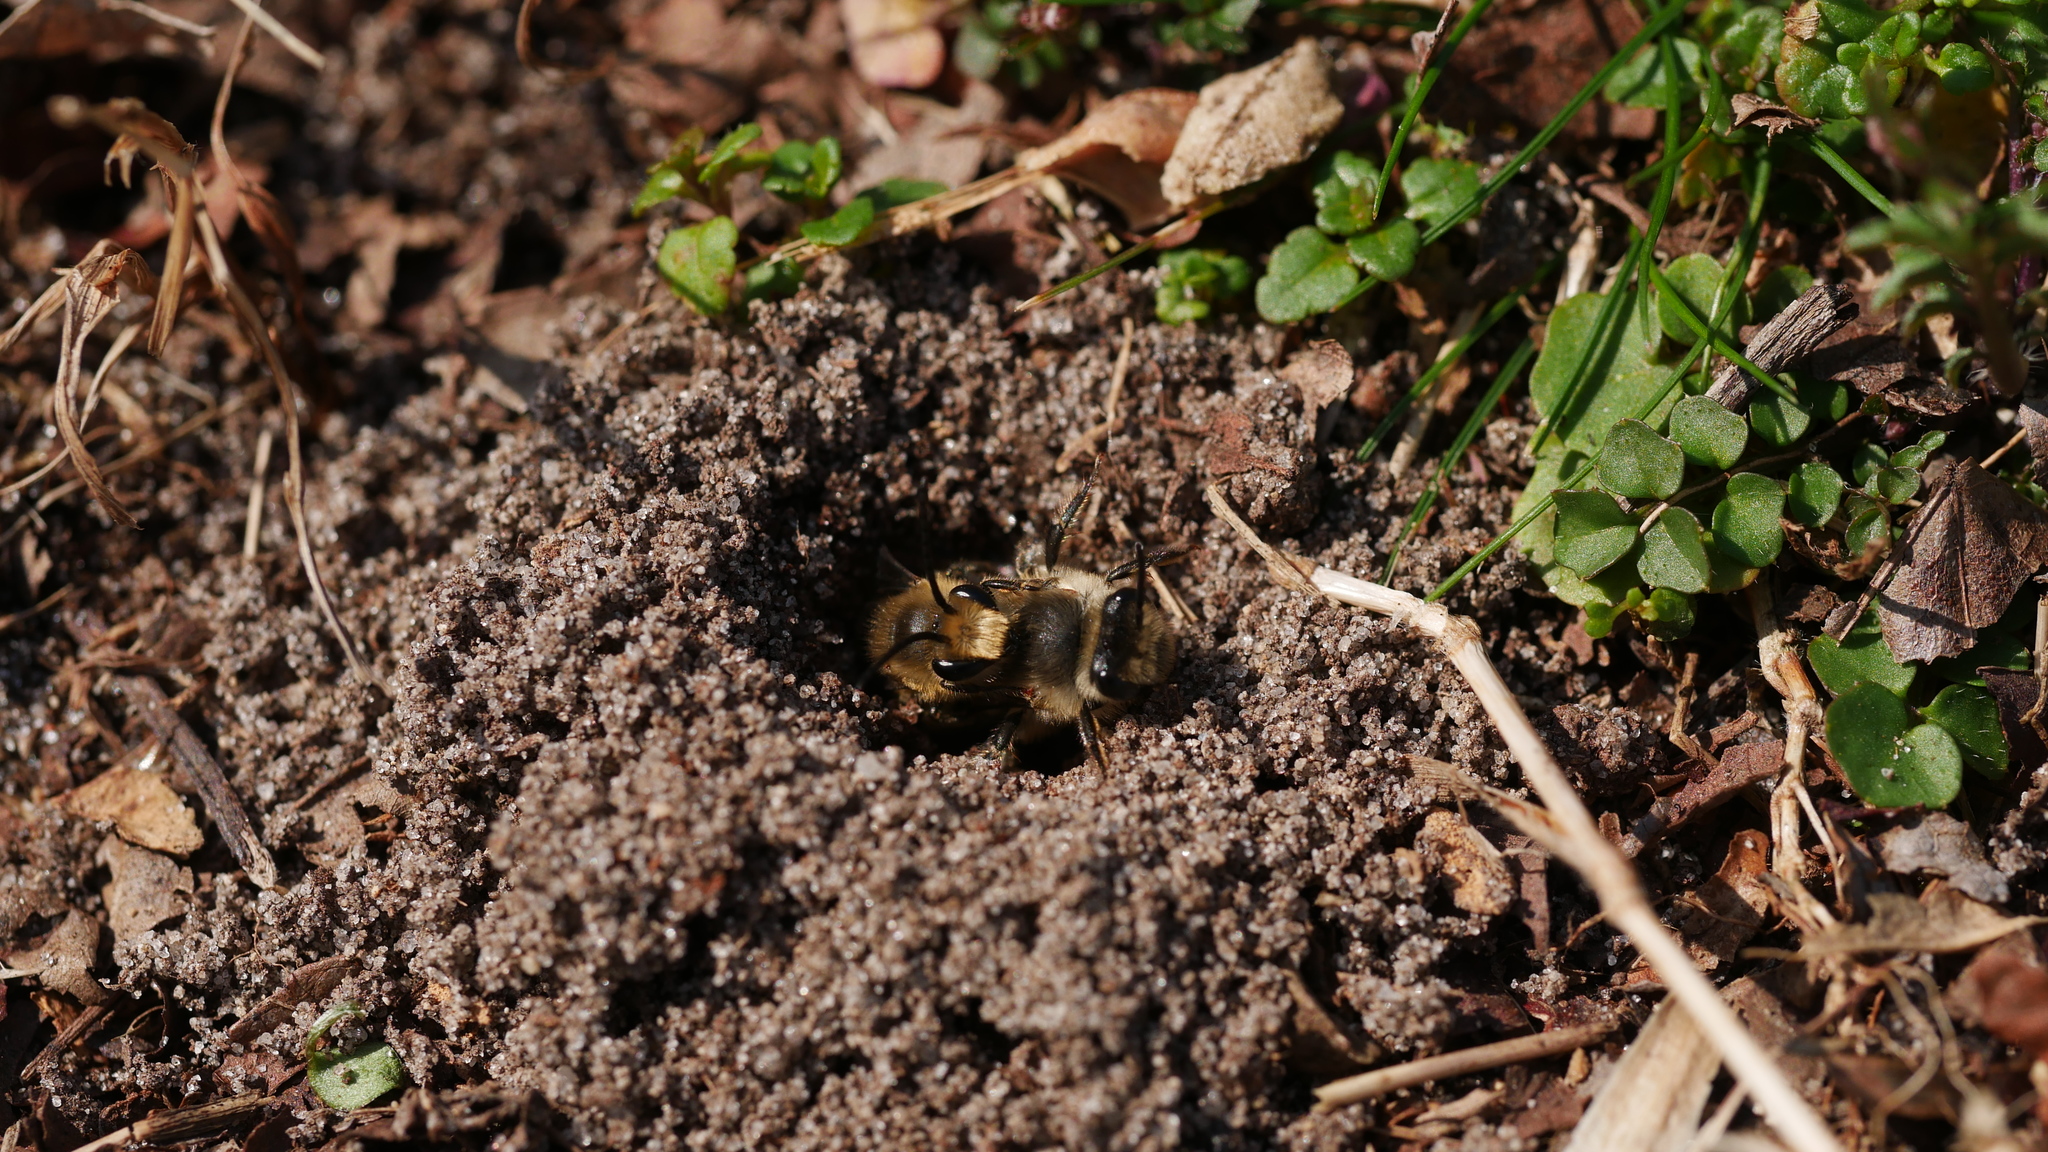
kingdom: Animalia
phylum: Arthropoda
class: Insecta
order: Hymenoptera
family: Colletidae
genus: Colletes
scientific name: Colletes inaequalis
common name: Unequal cellophane bee
